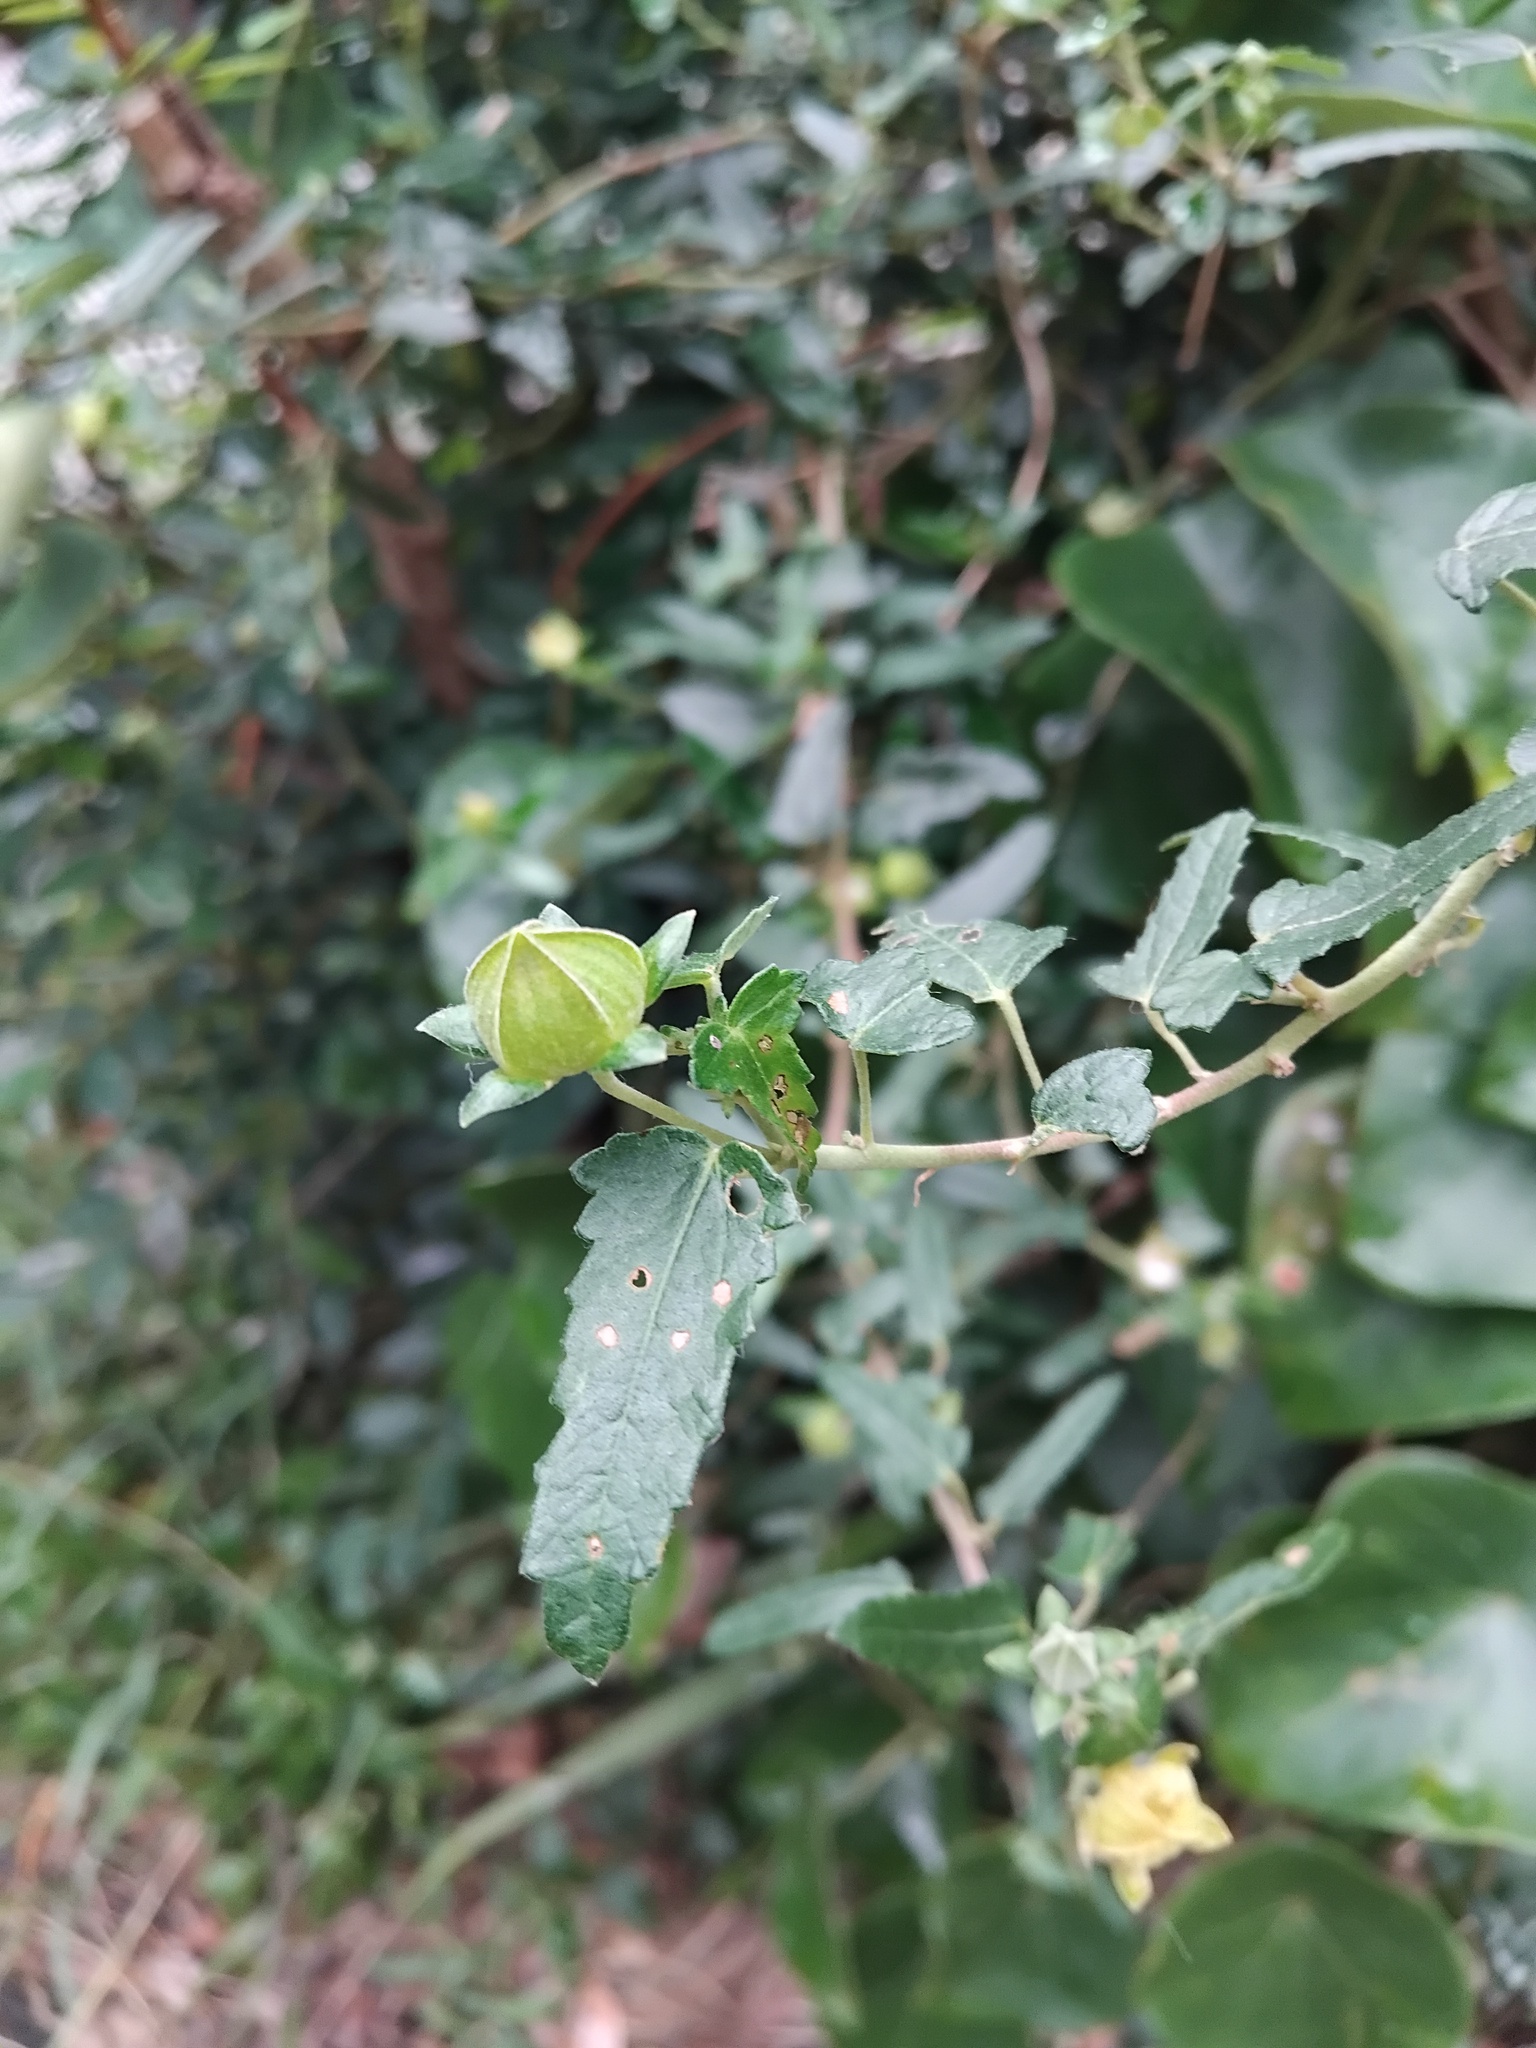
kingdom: Plantae
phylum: Tracheophyta
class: Magnoliopsida
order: Malvales
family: Malvaceae
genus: Pavonia
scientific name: Pavonia hastata
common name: Spearleaf swampmallow
